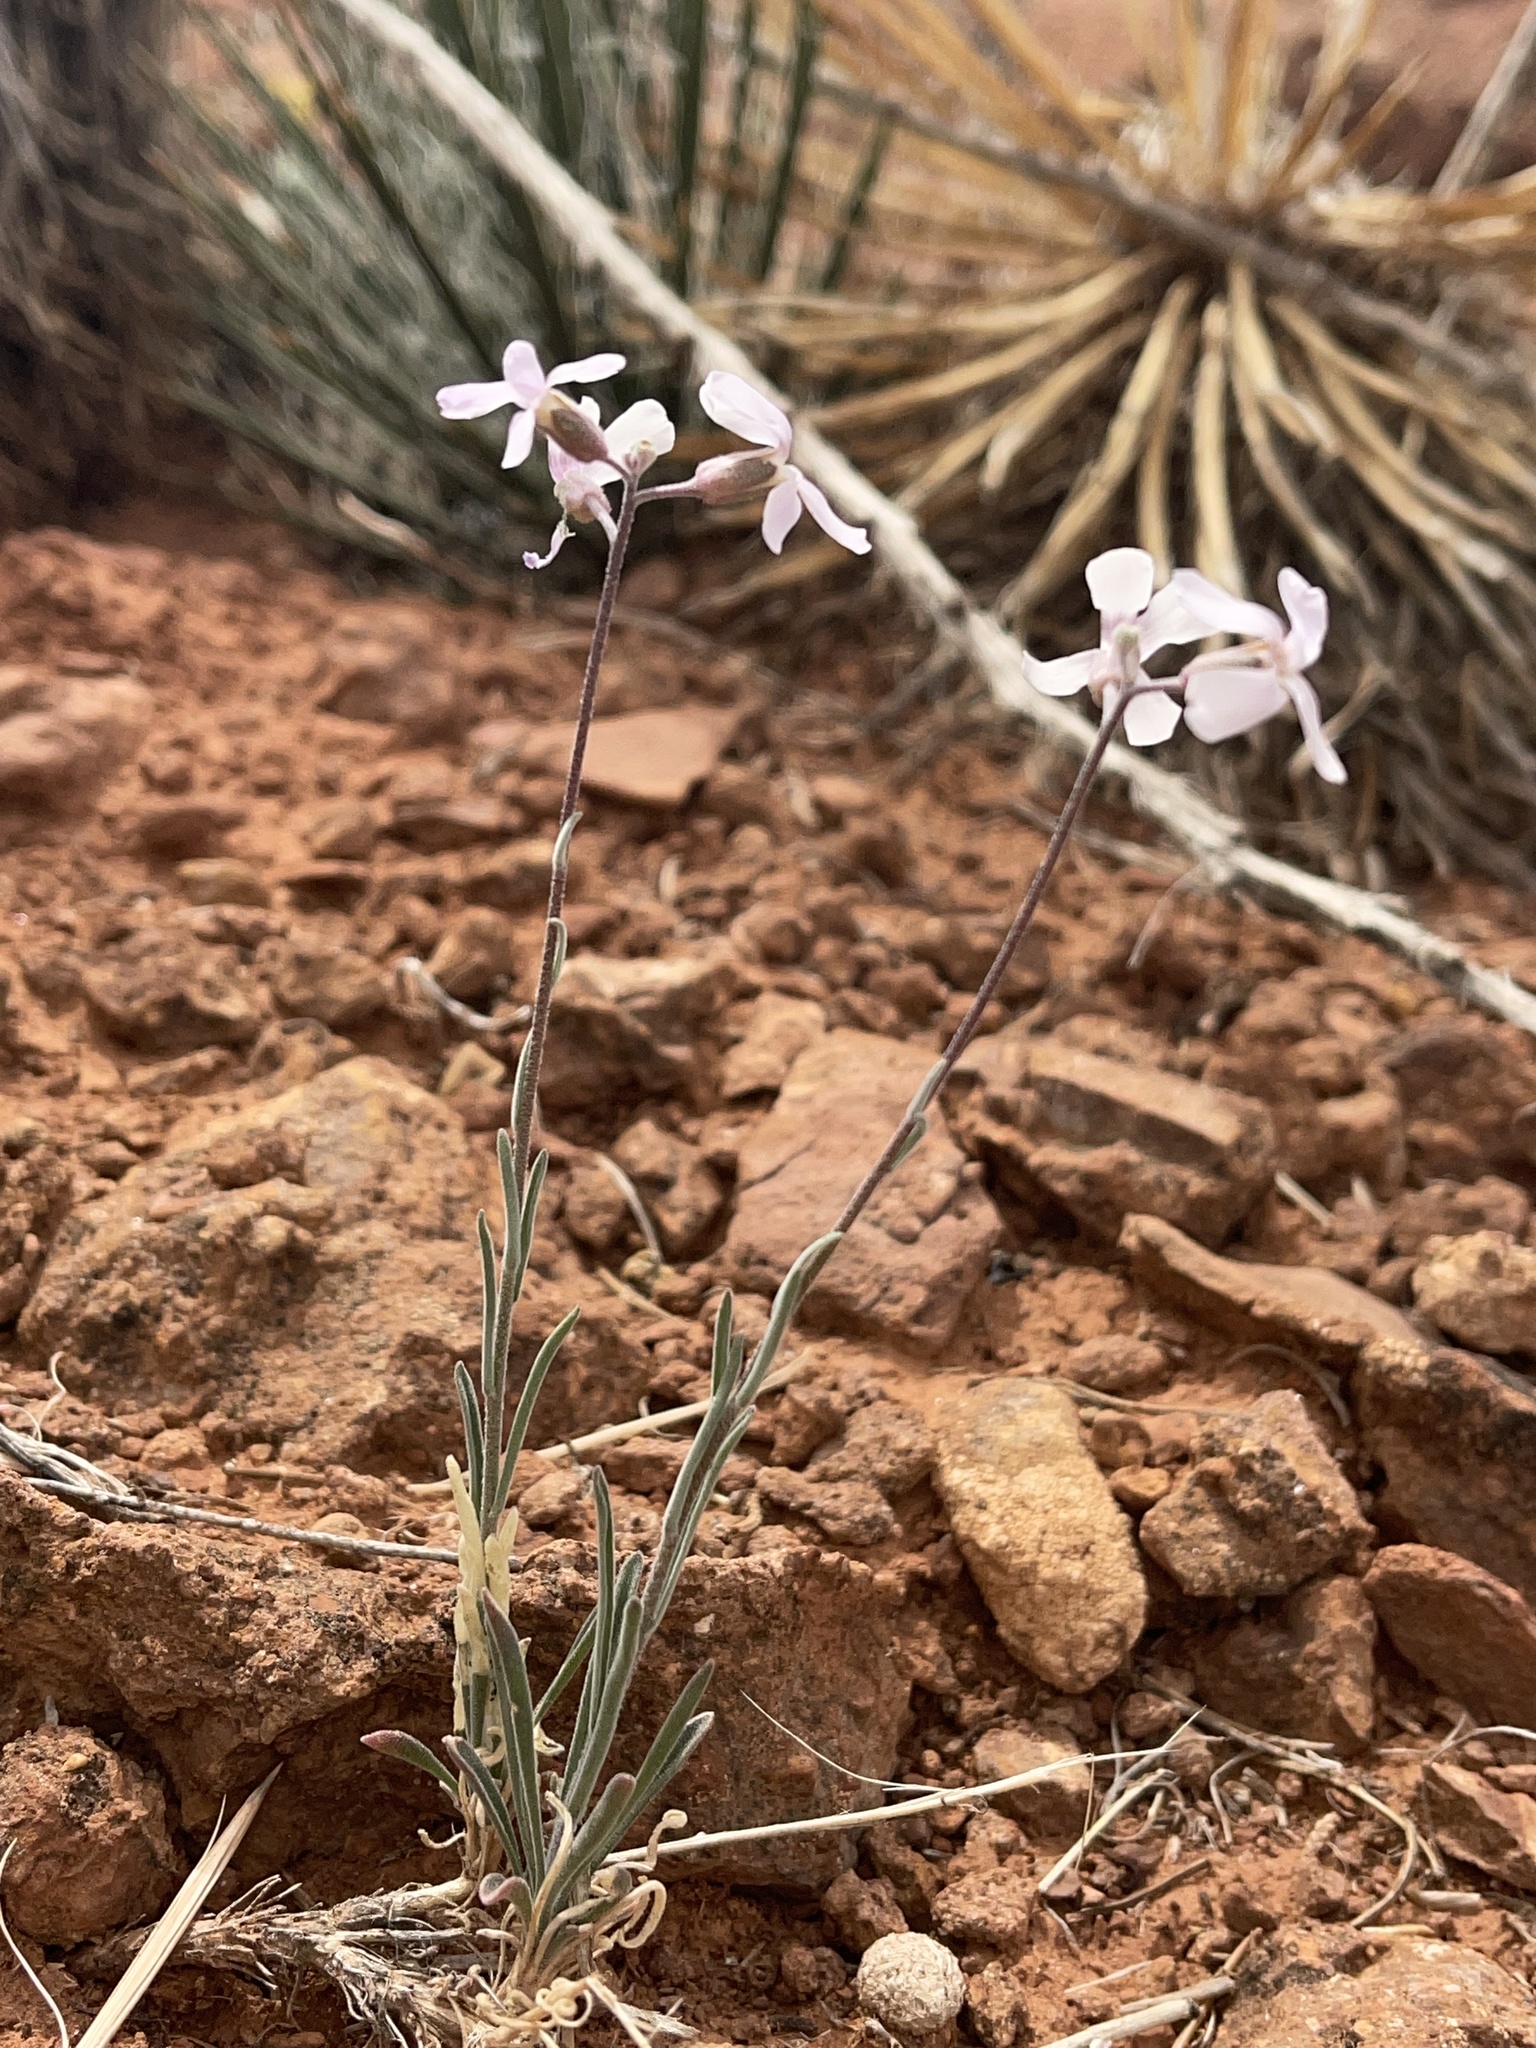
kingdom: Plantae
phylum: Tracheophyta
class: Magnoliopsida
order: Brassicales
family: Brassicaceae
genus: Boechera
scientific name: Boechera formosa
